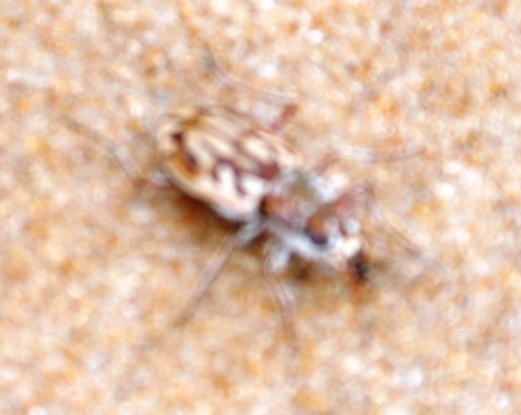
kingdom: Animalia
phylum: Arthropoda
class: Insecta
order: Coleoptera
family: Carabidae
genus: Habrodera
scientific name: Habrodera capensis
